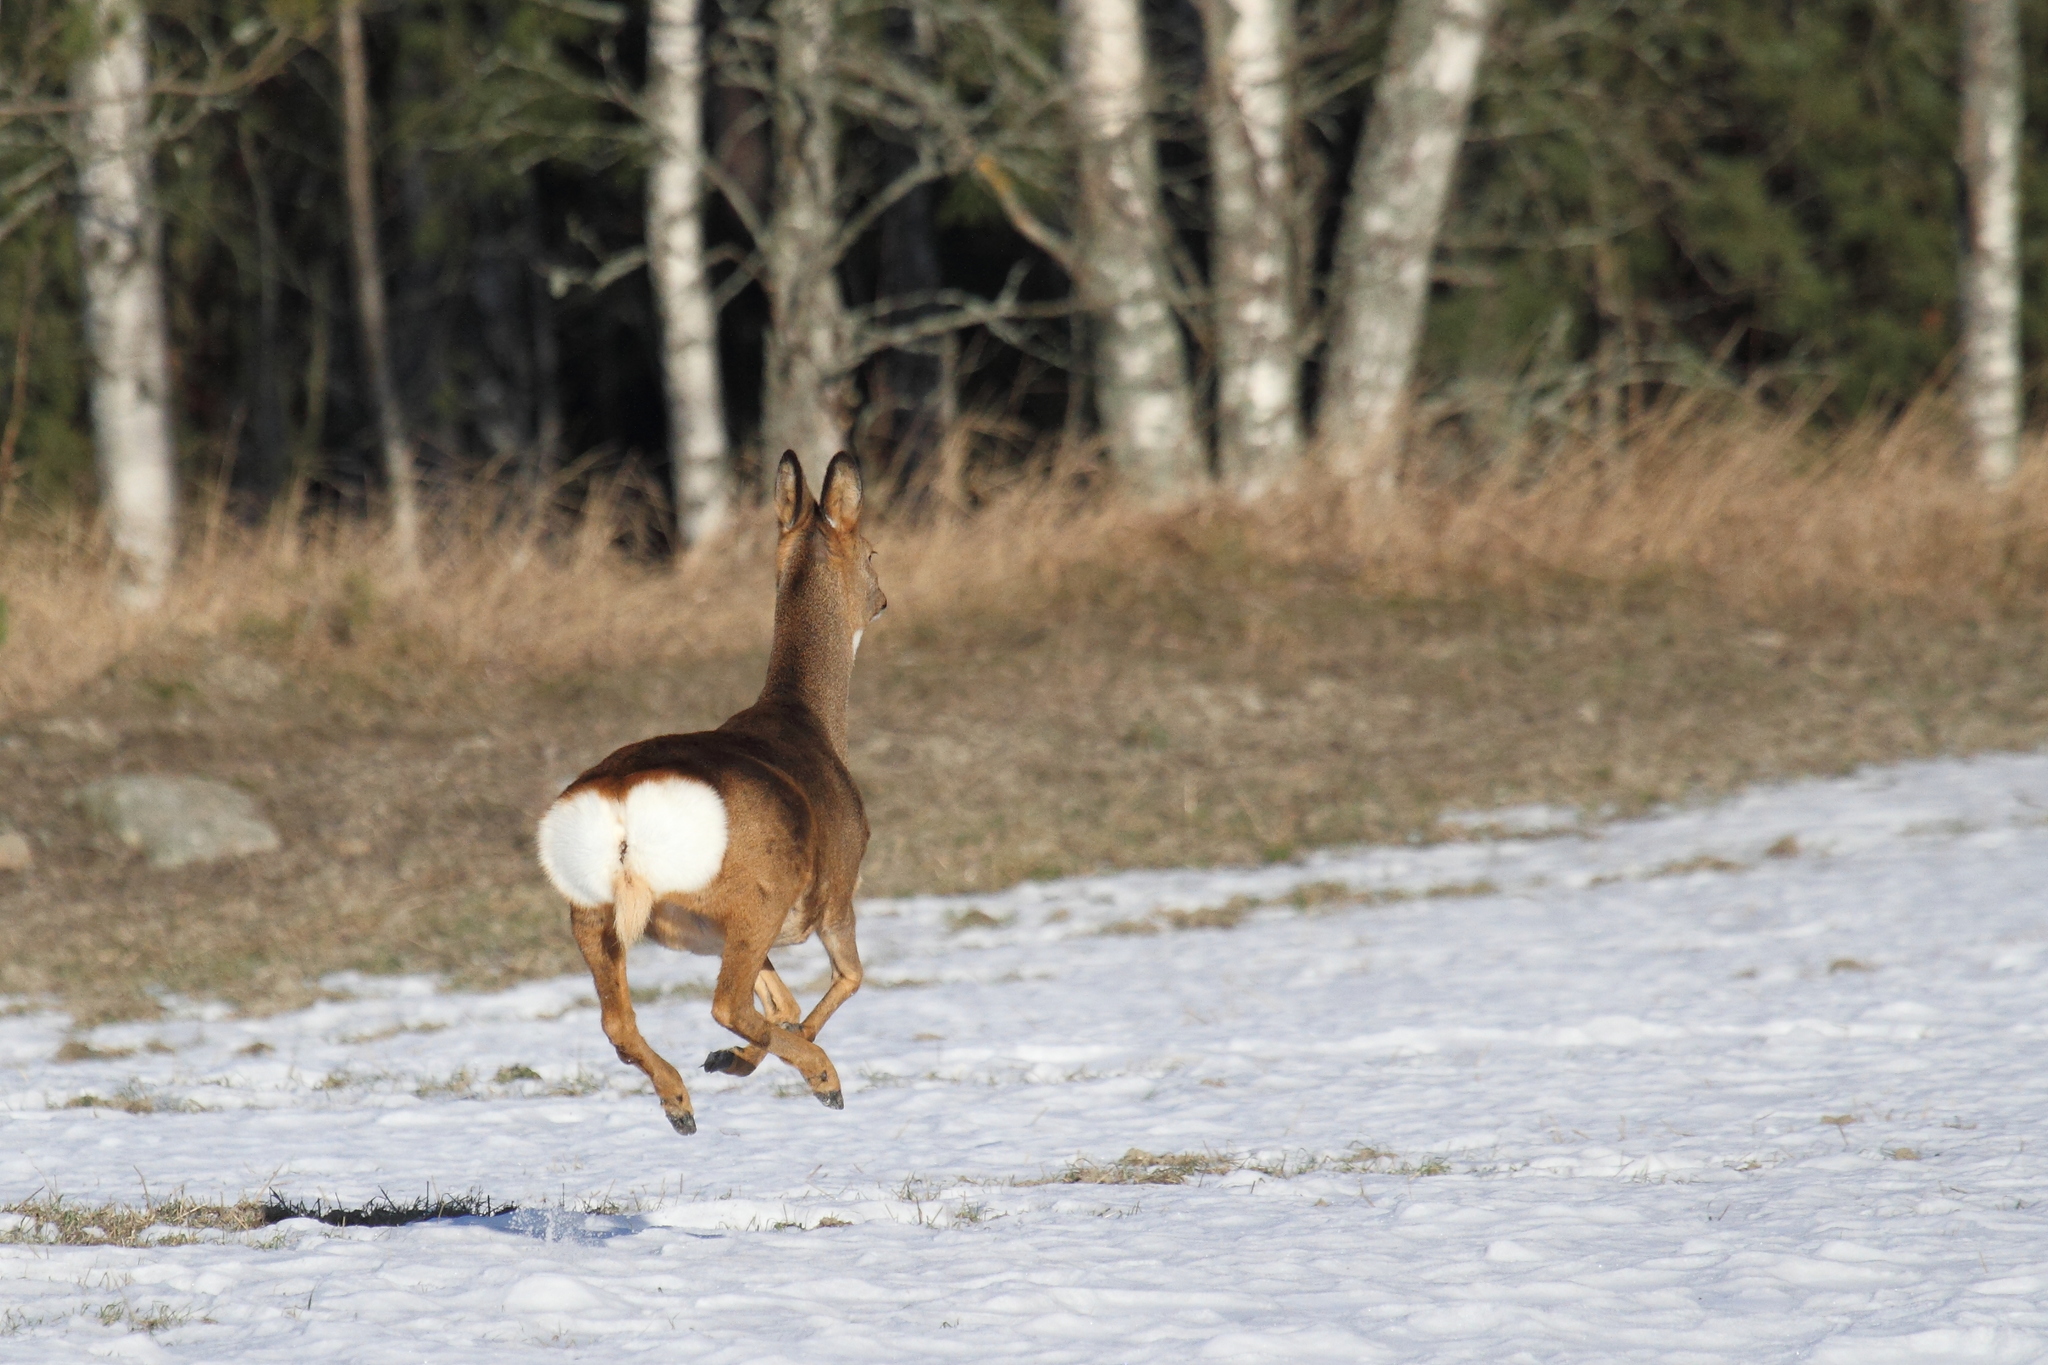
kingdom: Animalia
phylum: Chordata
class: Mammalia
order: Artiodactyla
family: Cervidae
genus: Capreolus
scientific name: Capreolus capreolus
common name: Western roe deer
